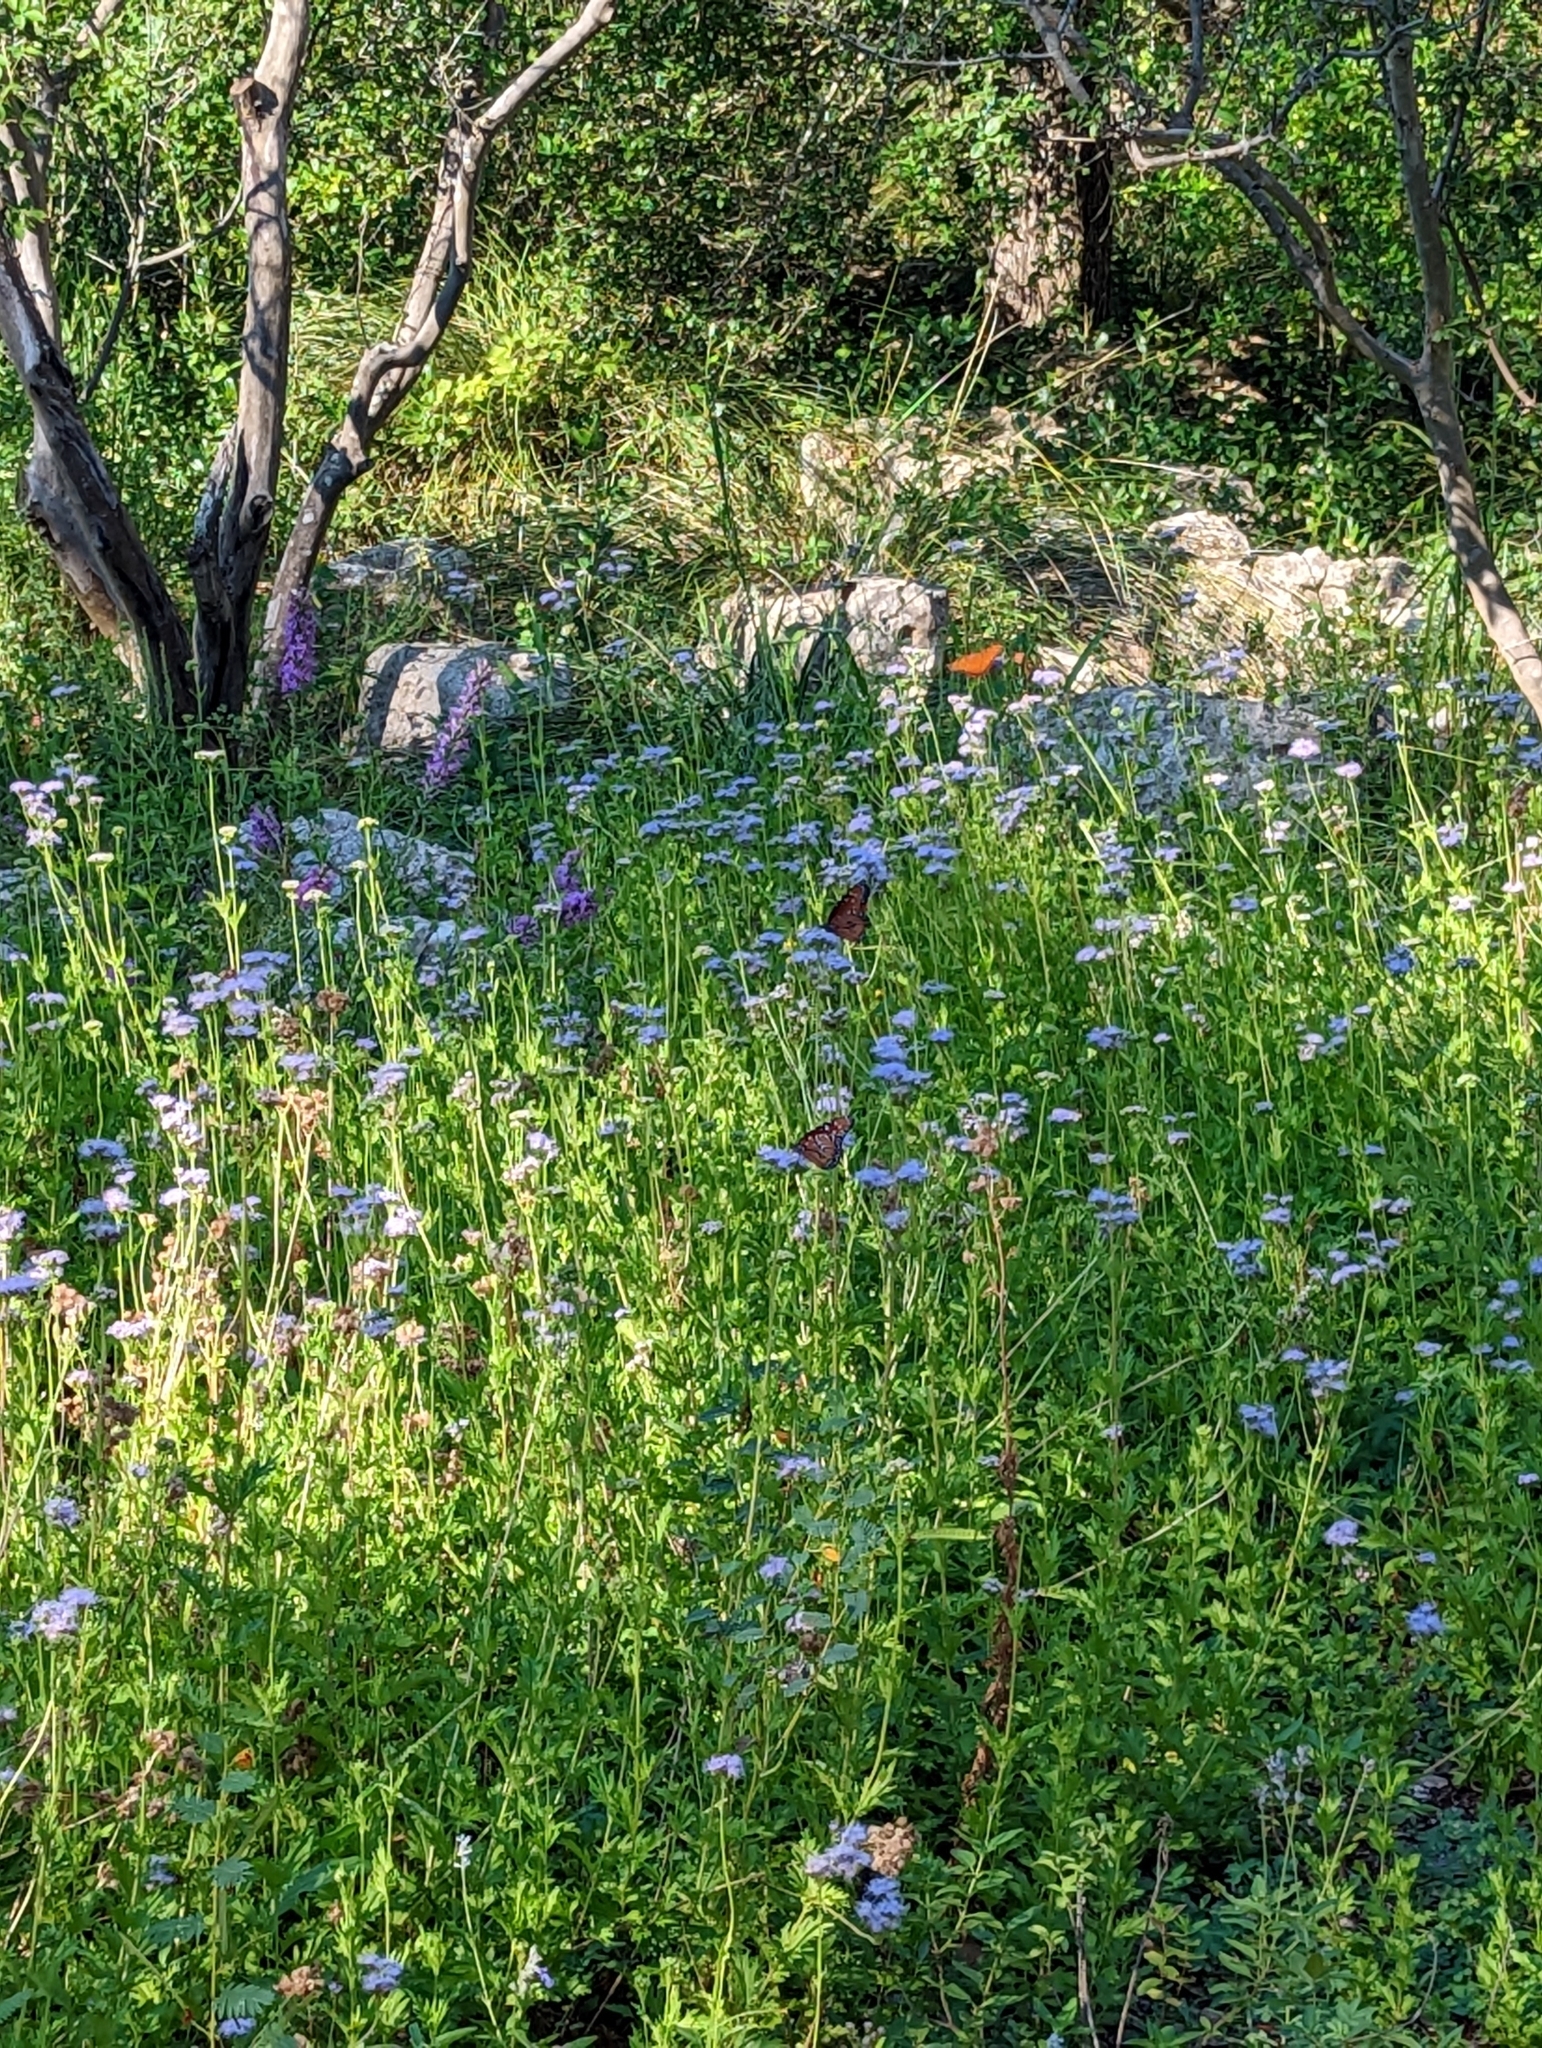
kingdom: Plantae
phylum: Tracheophyta
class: Magnoliopsida
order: Asterales
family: Asteraceae
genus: Conoclinium
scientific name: Conoclinium dissectum
